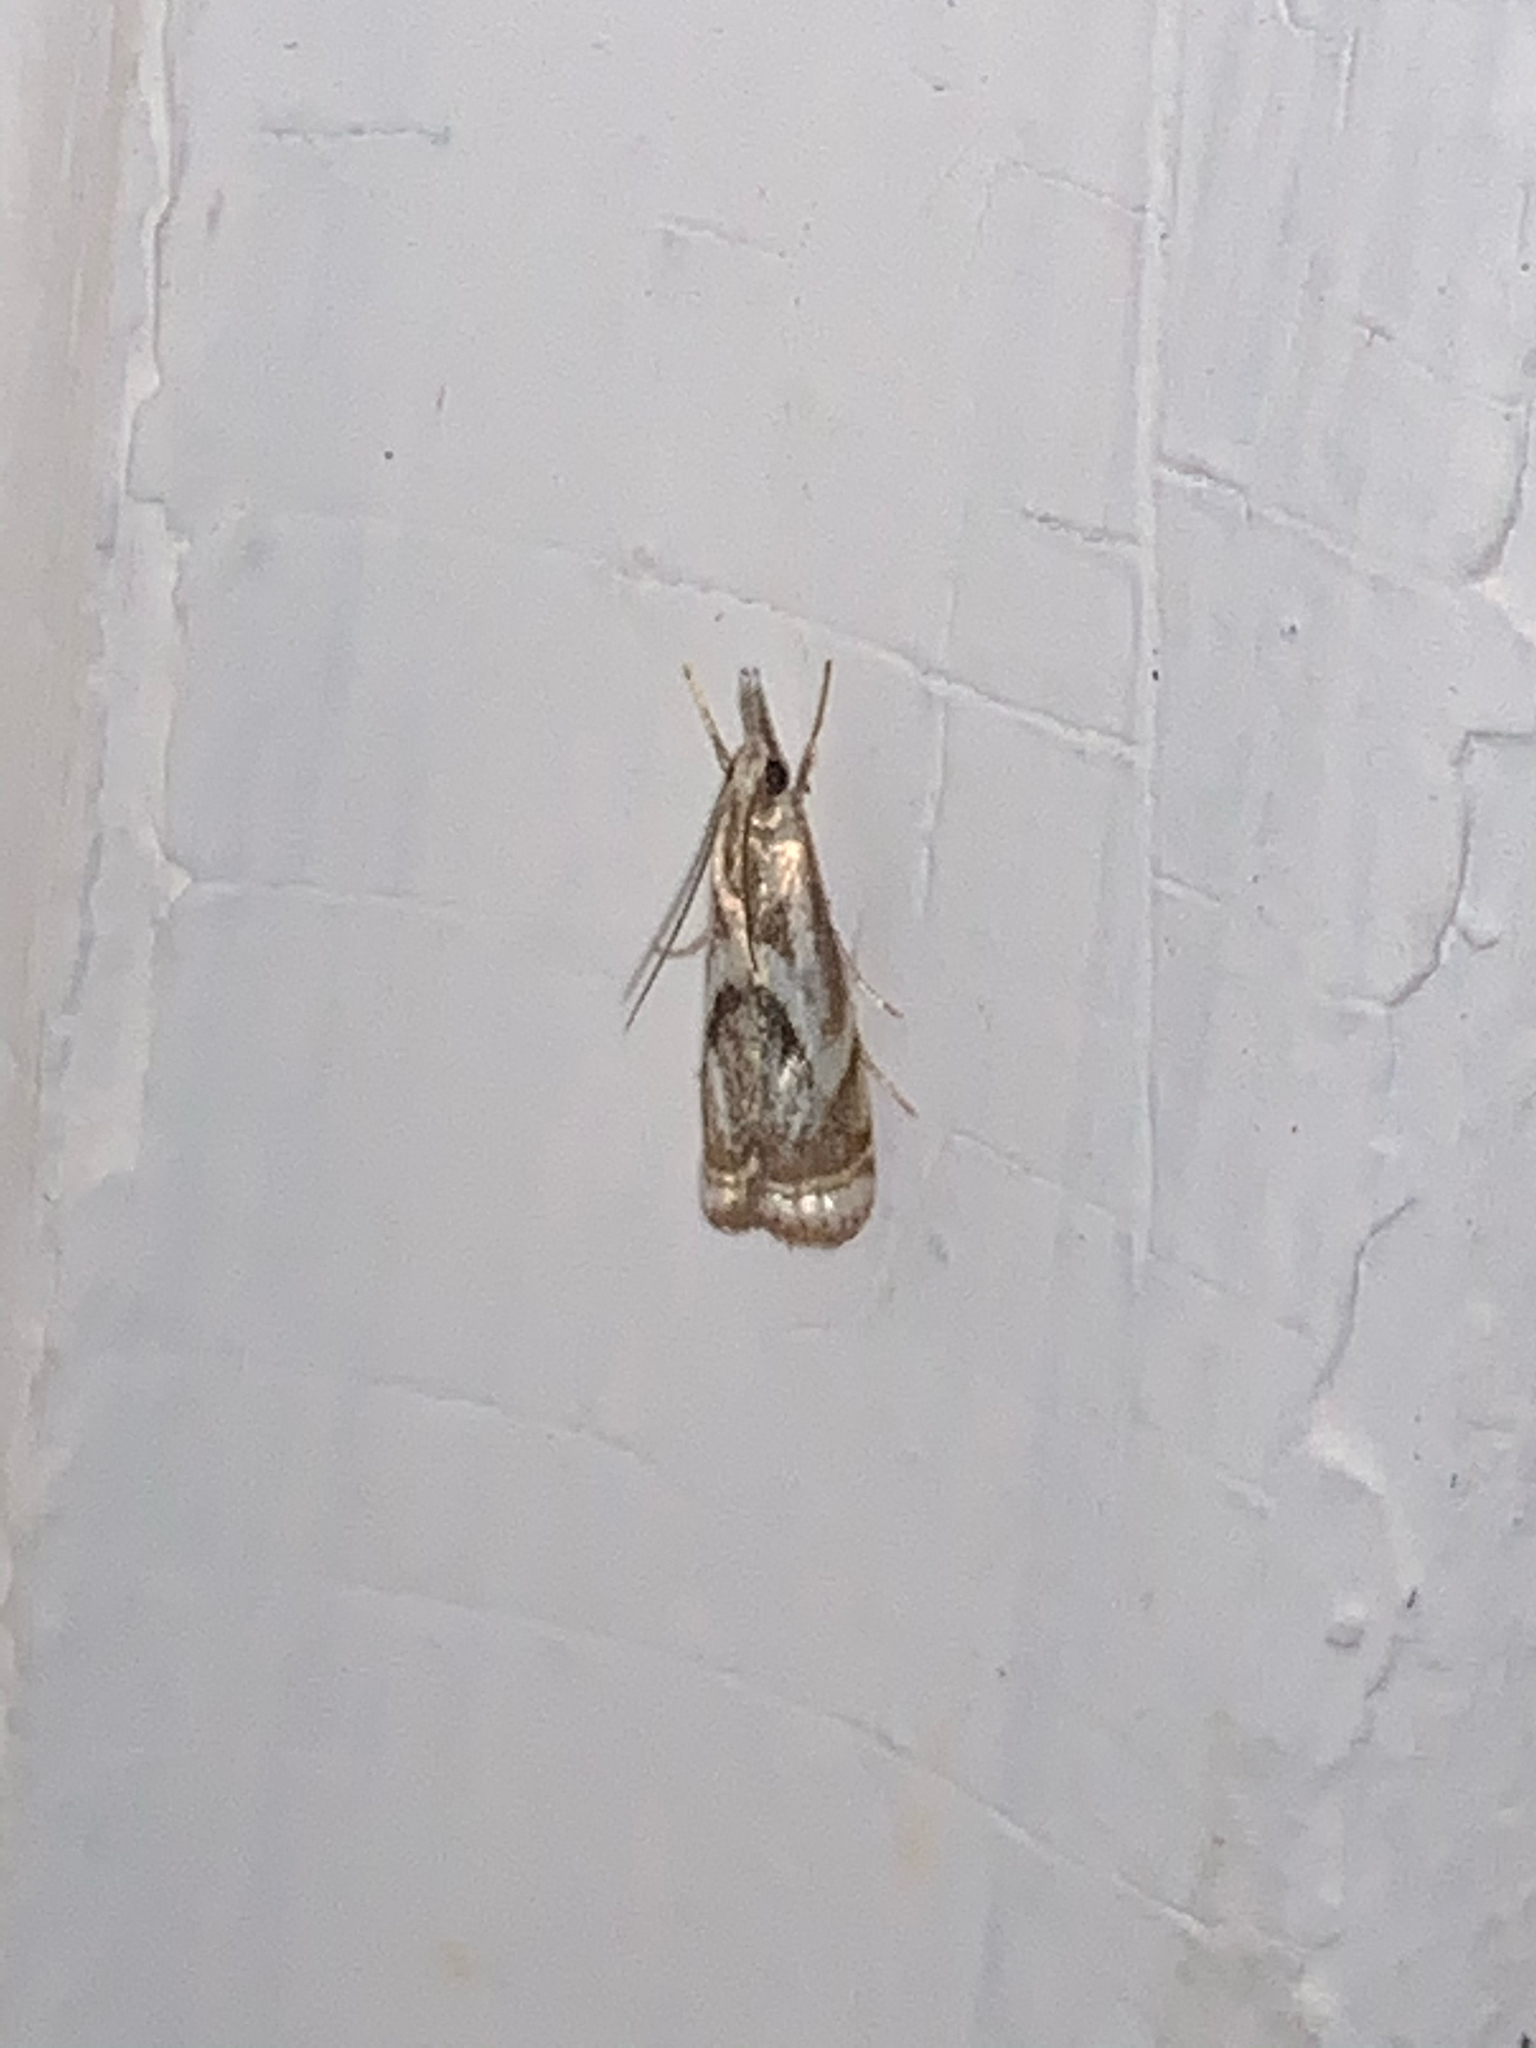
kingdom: Animalia
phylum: Arthropoda
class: Insecta
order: Lepidoptera
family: Crambidae
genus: Microcrambus
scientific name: Microcrambus elegans
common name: Elegant grass-veneer
